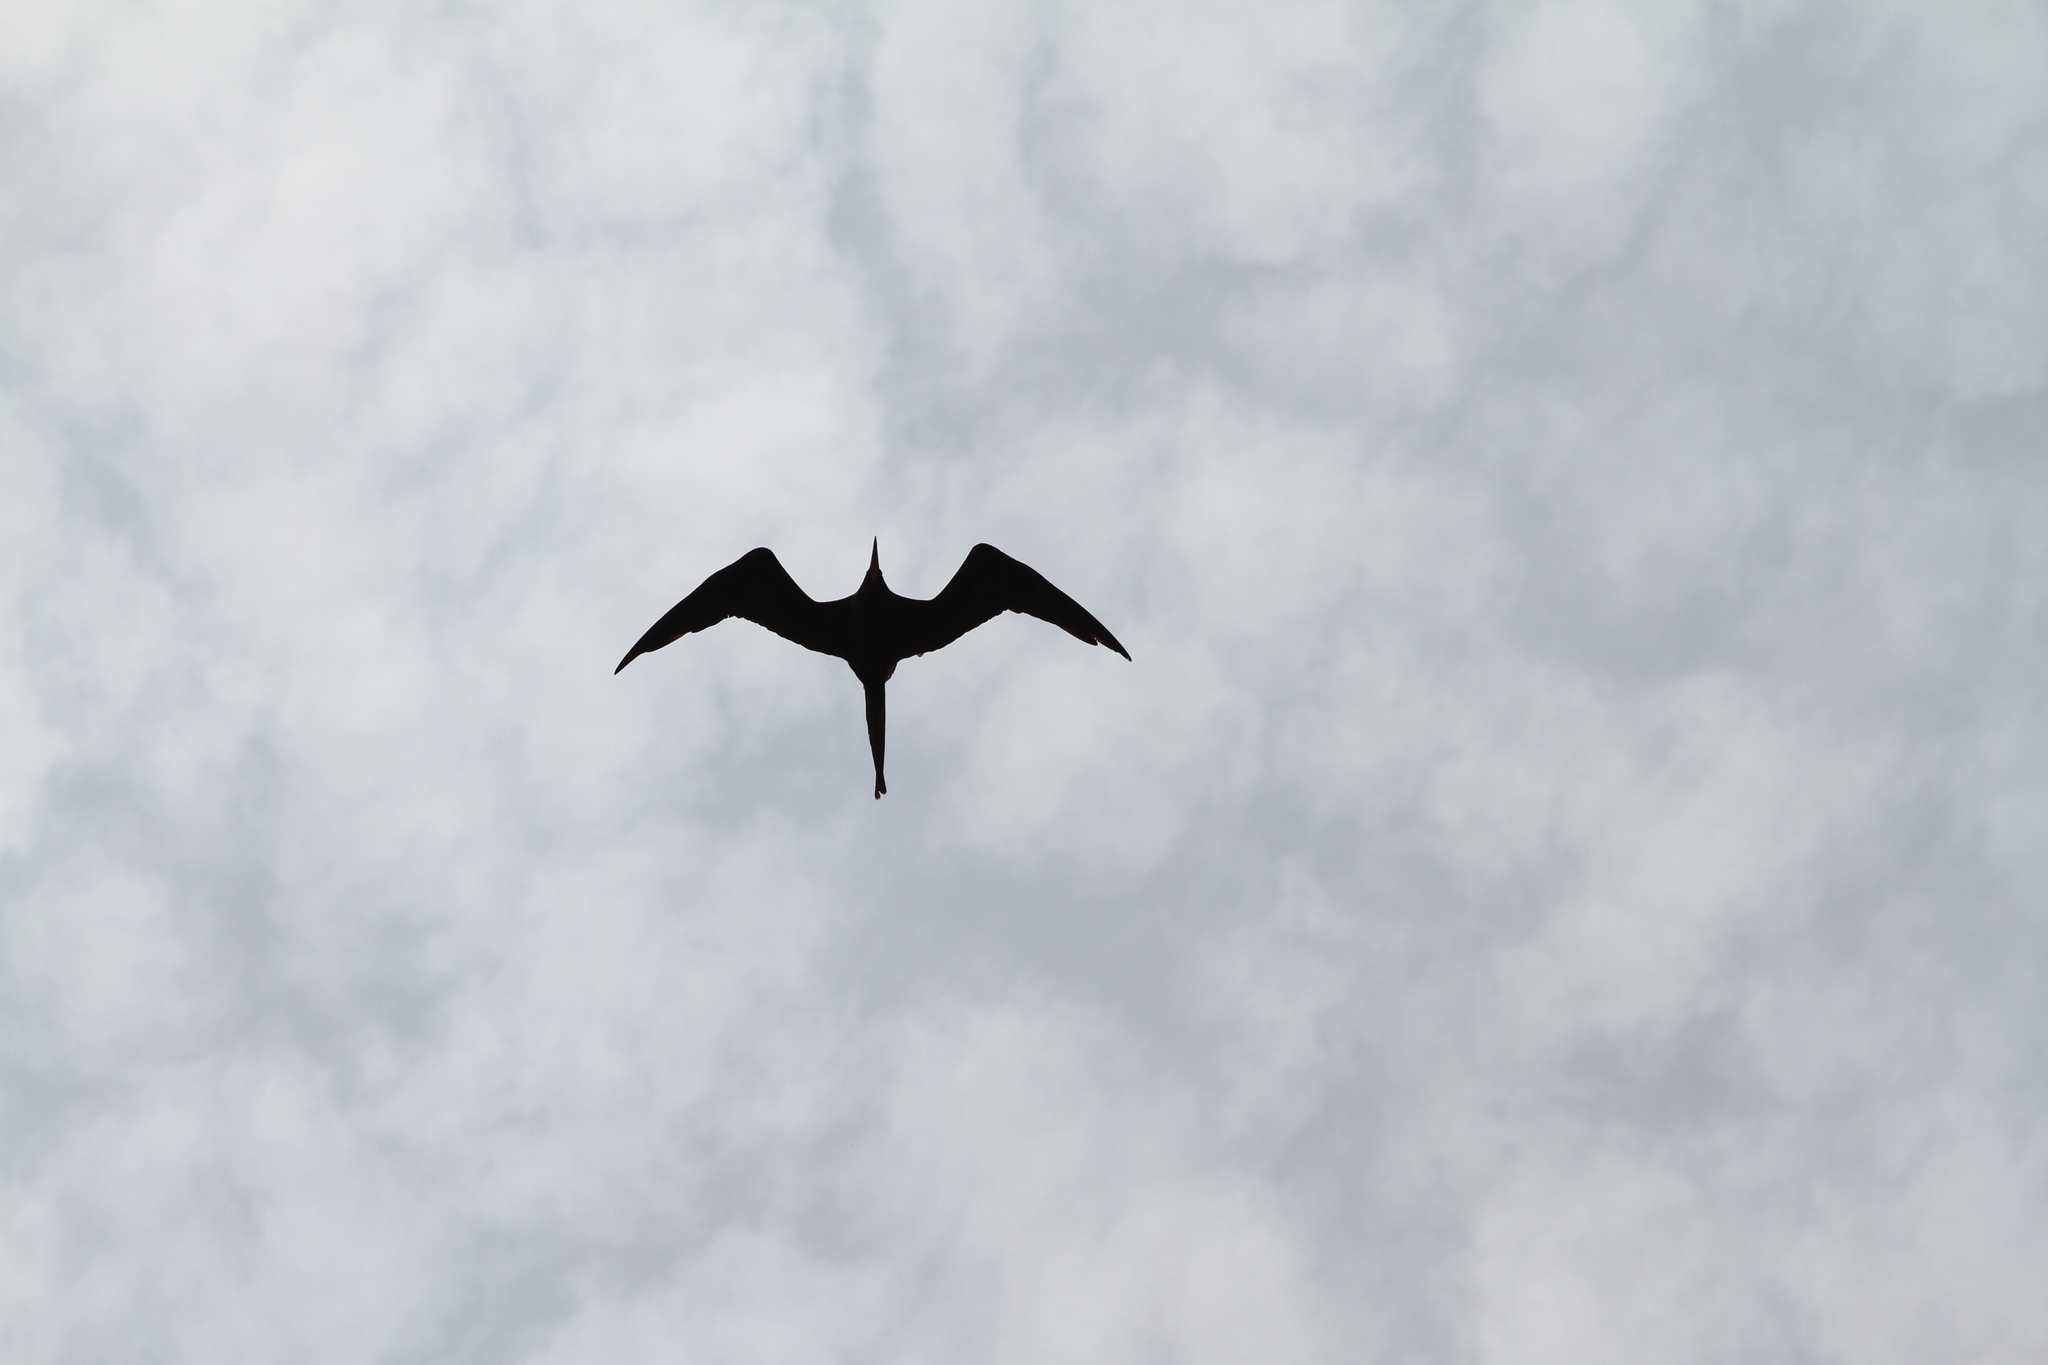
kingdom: Animalia
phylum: Chordata
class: Aves
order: Suliformes
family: Fregatidae
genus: Fregata
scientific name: Fregata magnificens
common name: Magnificent frigatebird
